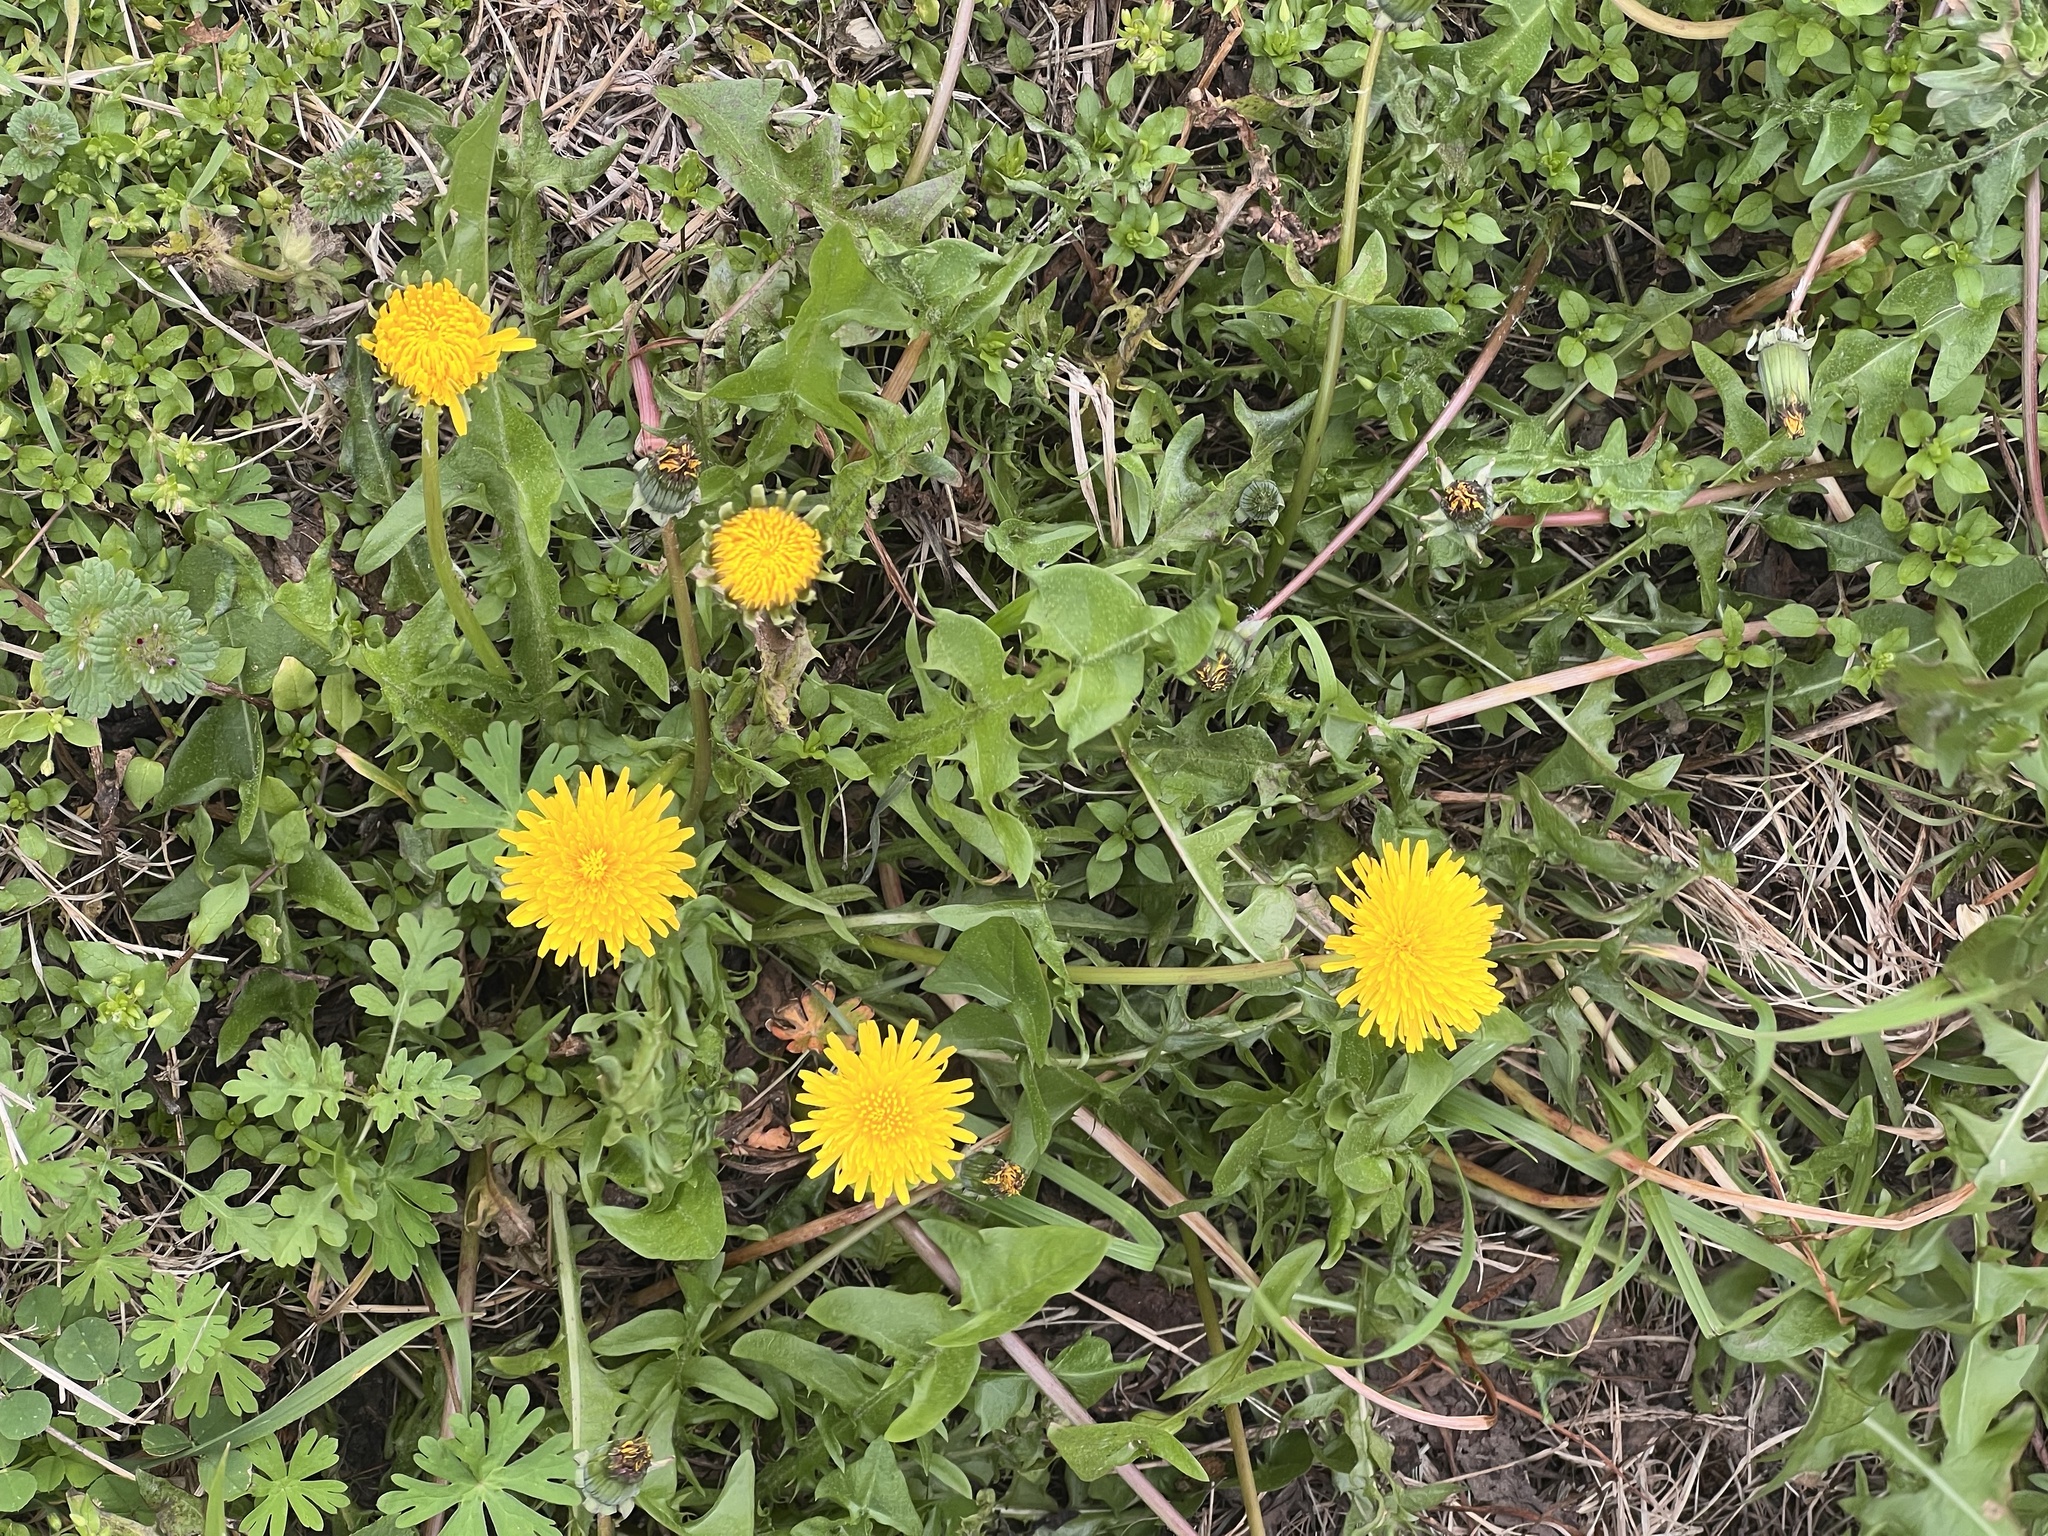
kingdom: Plantae
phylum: Tracheophyta
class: Magnoliopsida
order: Asterales
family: Asteraceae
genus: Taraxacum
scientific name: Taraxacum officinale
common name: Common dandelion
